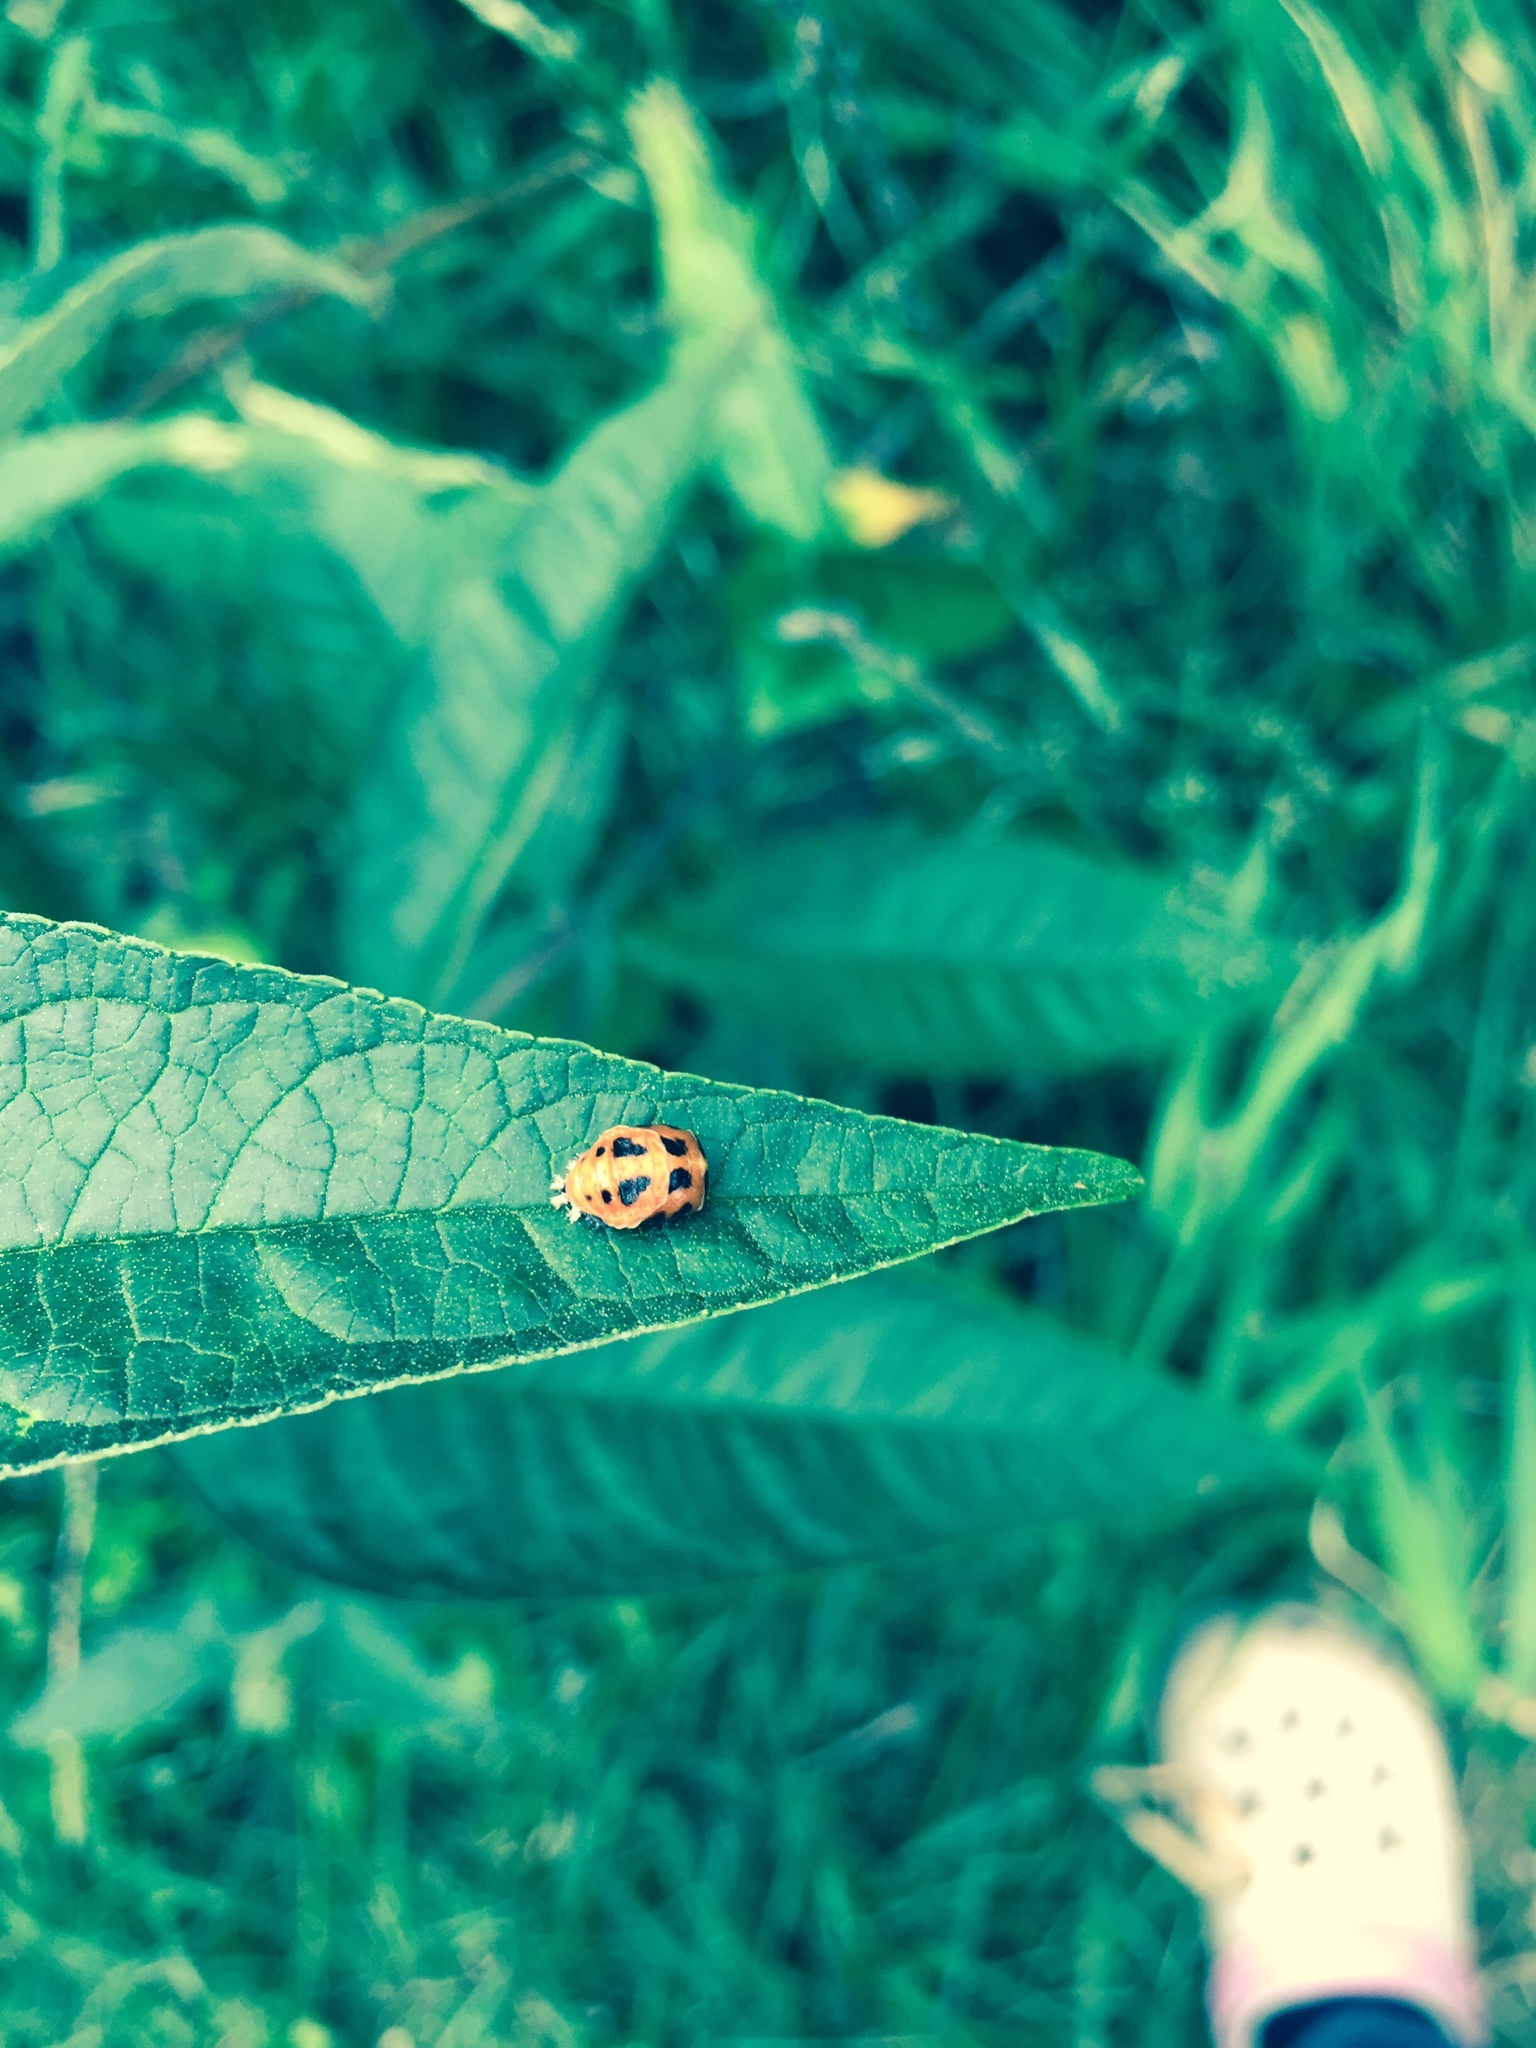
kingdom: Animalia
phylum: Arthropoda
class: Insecta
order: Coleoptera
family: Coccinellidae
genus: Harmonia
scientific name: Harmonia axyridis
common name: Harlequin ladybird
